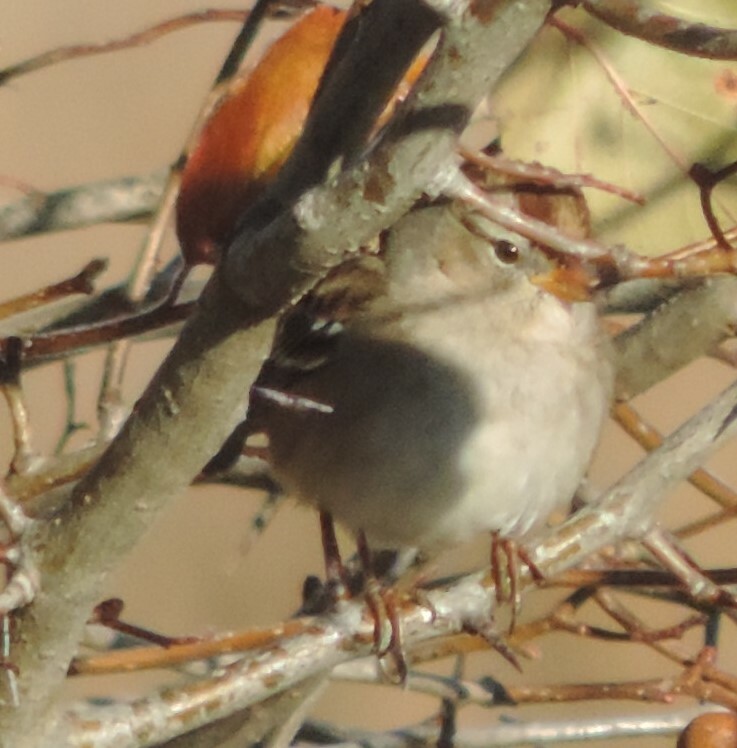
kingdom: Animalia
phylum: Chordata
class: Aves
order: Passeriformes
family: Passerellidae
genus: Zonotrichia
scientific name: Zonotrichia leucophrys
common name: White-crowned sparrow
